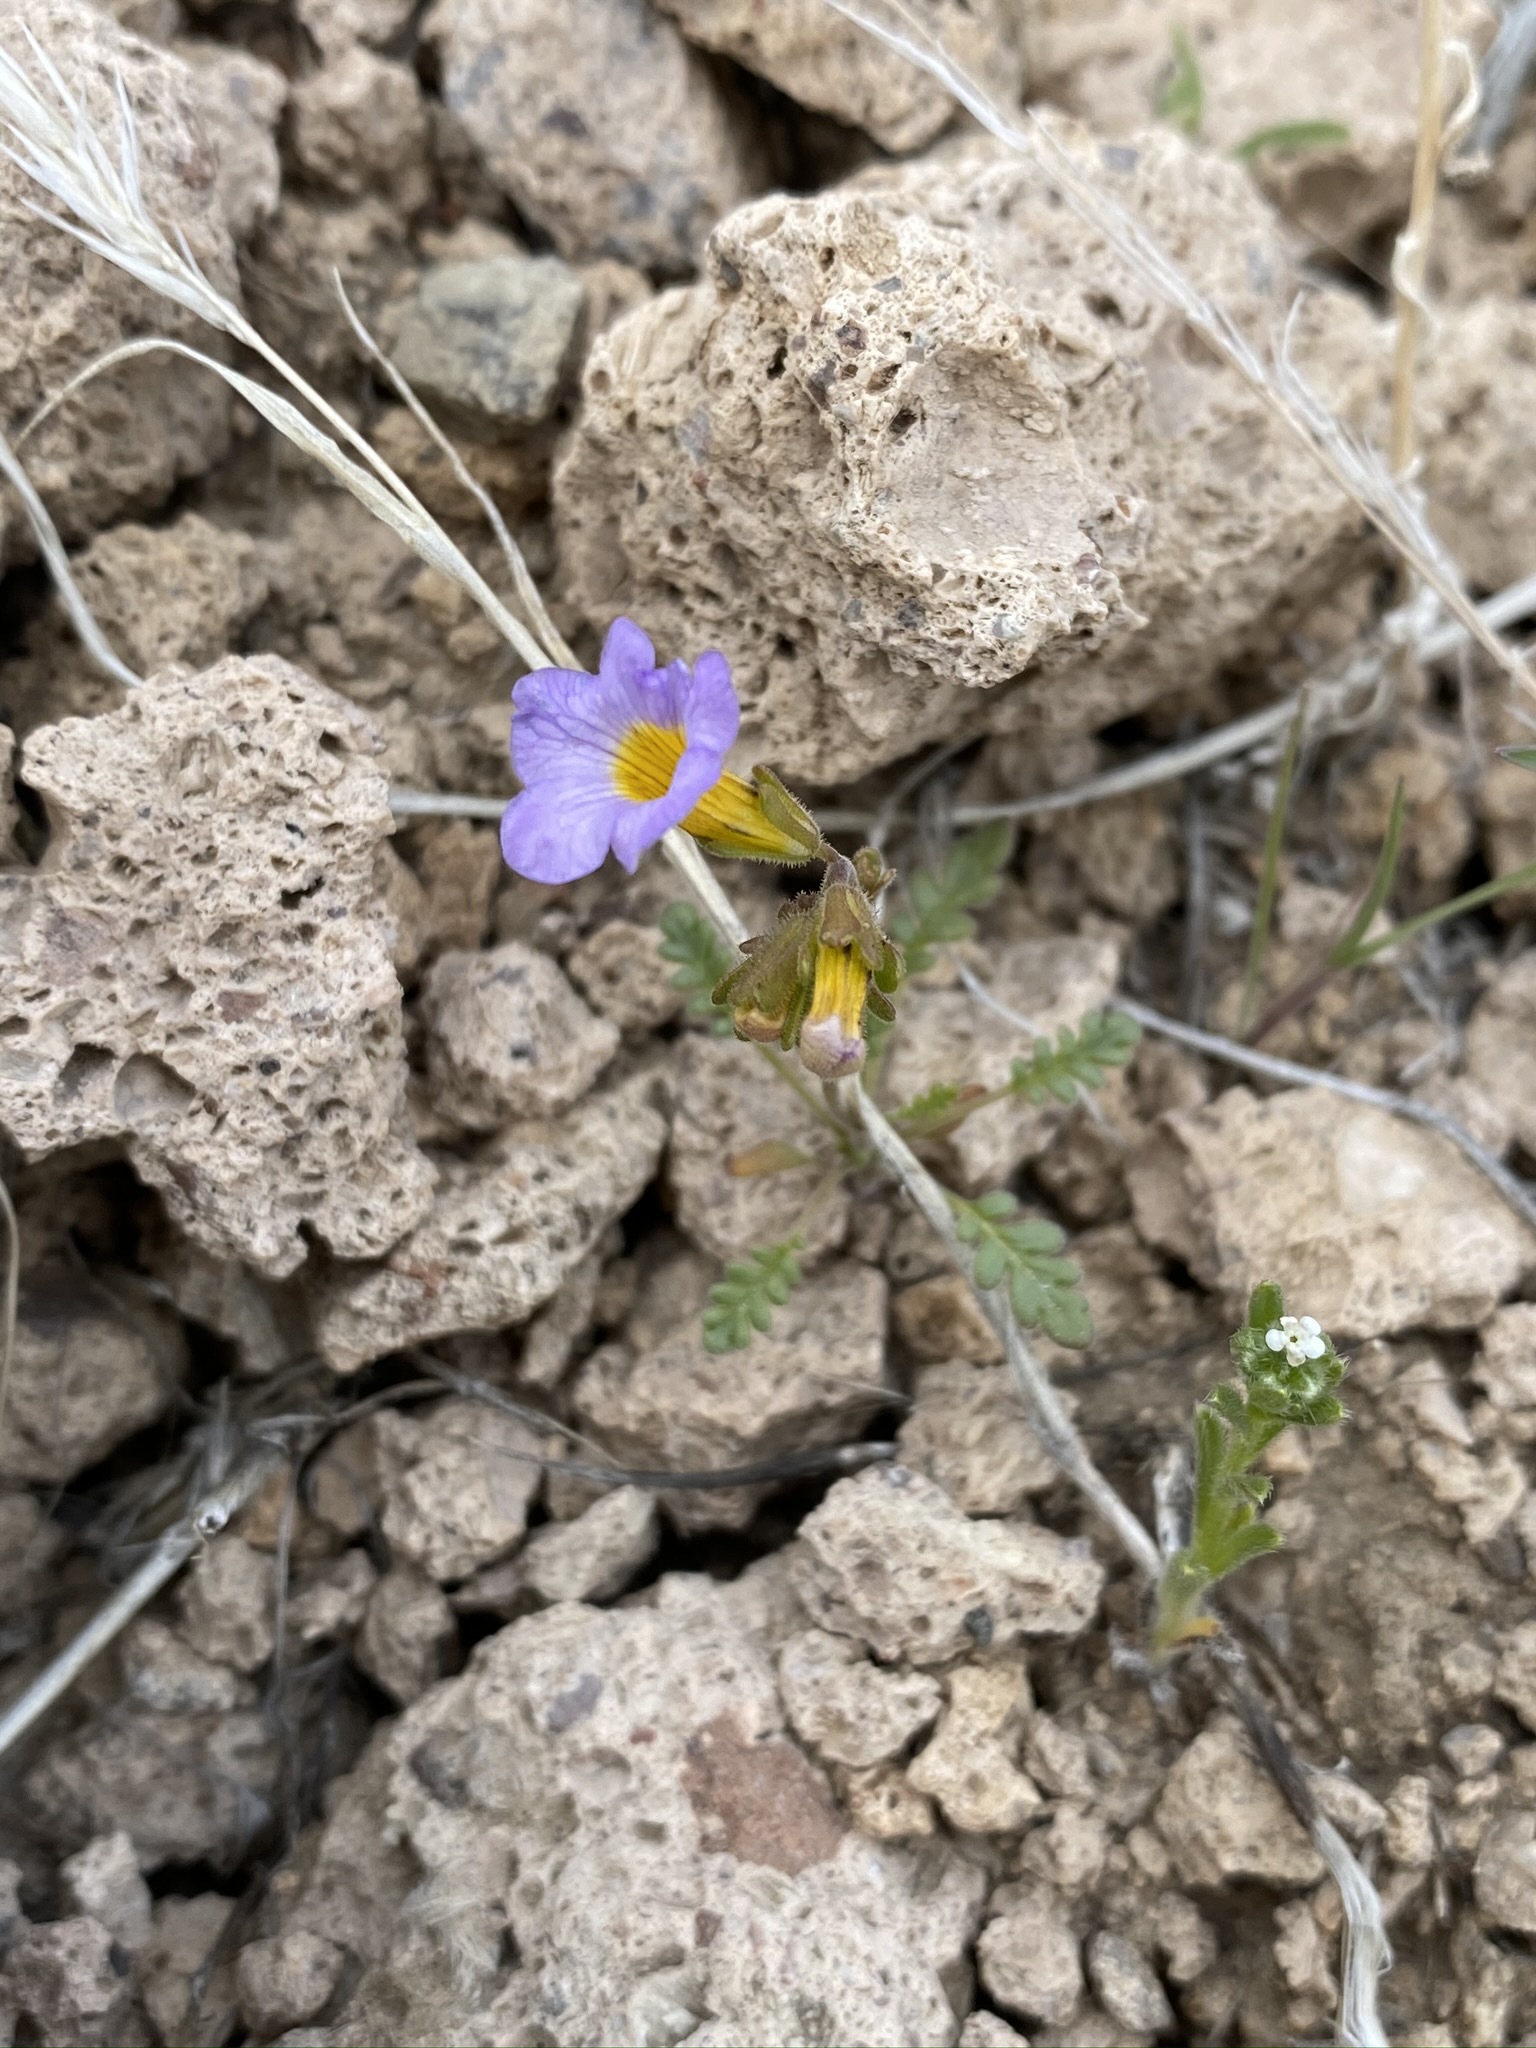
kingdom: Plantae
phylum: Tracheophyta
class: Magnoliopsida
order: Boraginales
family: Hydrophyllaceae
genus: Phacelia
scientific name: Phacelia fremontii
